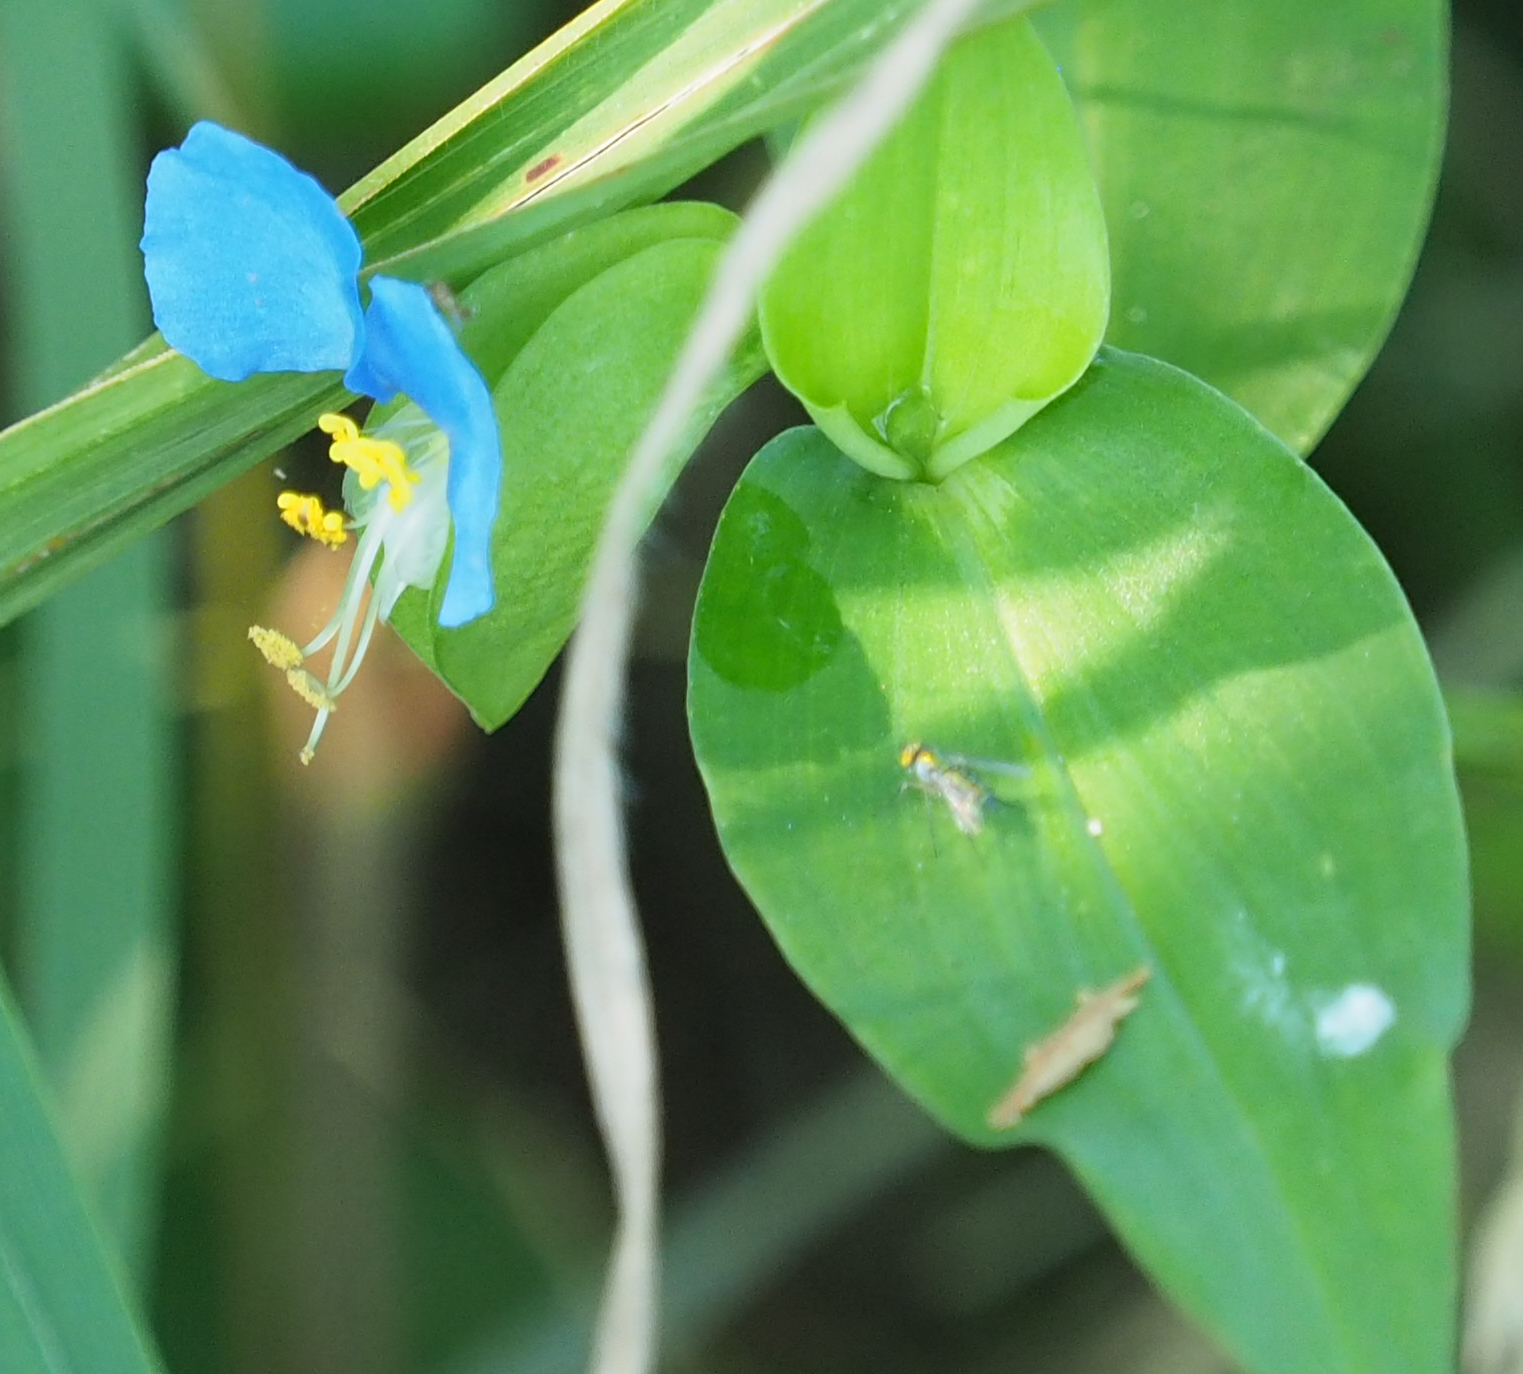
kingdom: Plantae
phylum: Tracheophyta
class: Liliopsida
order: Commelinales
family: Commelinaceae
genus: Commelina
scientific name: Commelina communis
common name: Asiatic dayflower
